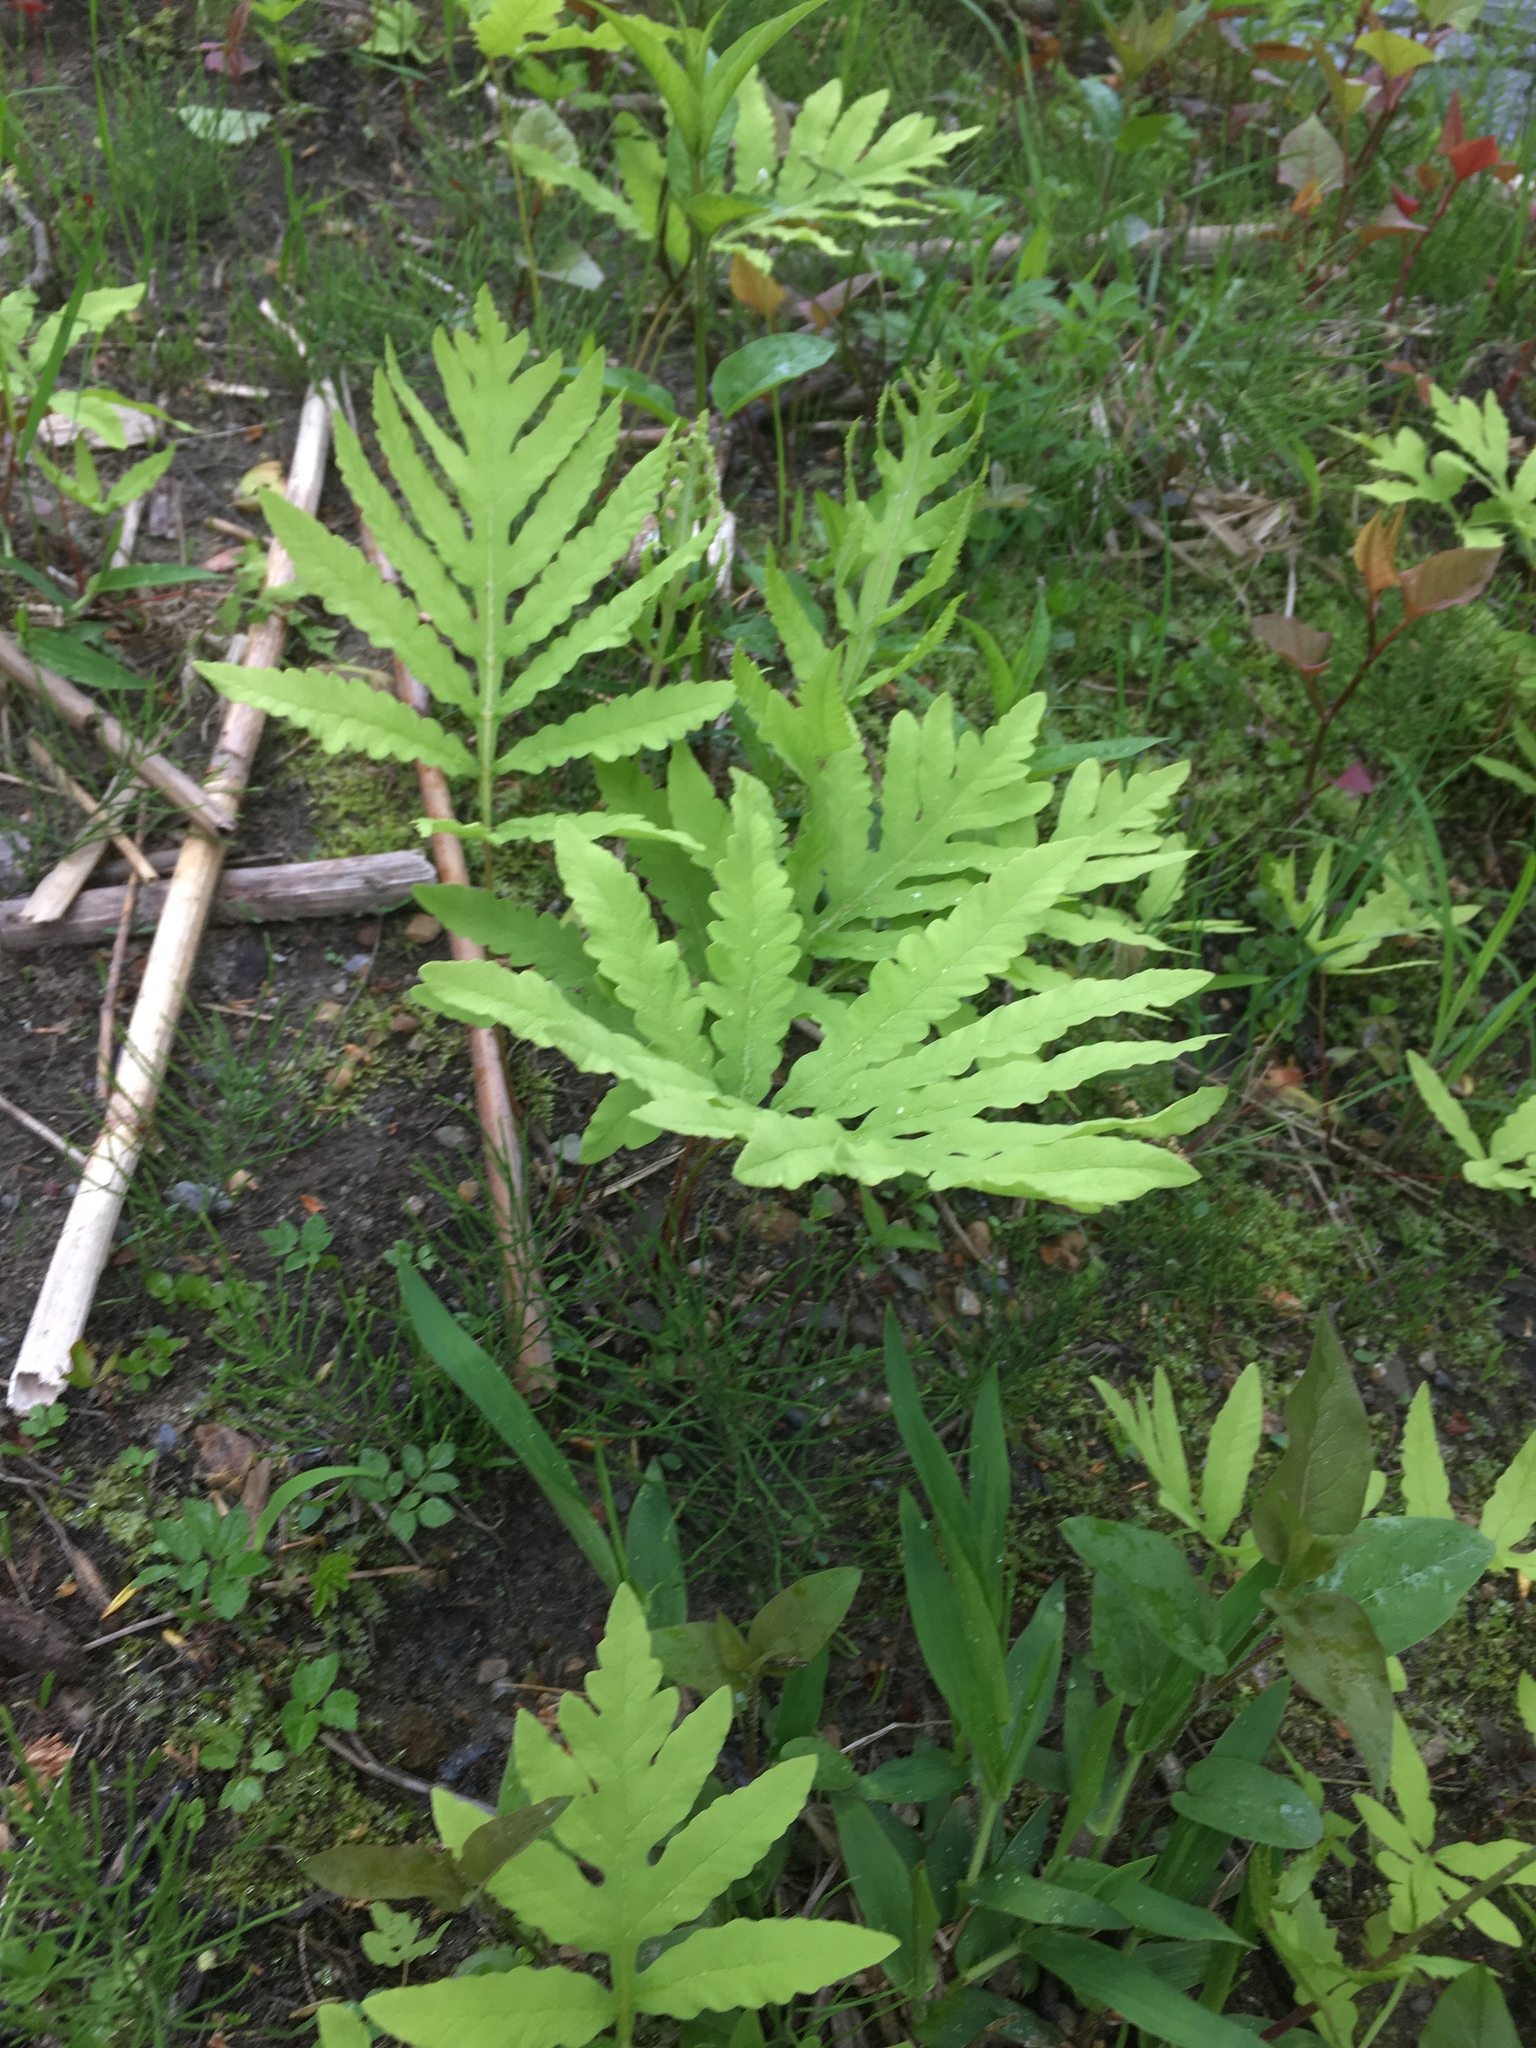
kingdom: Plantae
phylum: Tracheophyta
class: Polypodiopsida
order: Polypodiales
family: Onocleaceae
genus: Onoclea
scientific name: Onoclea sensibilis
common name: Sensitive fern
